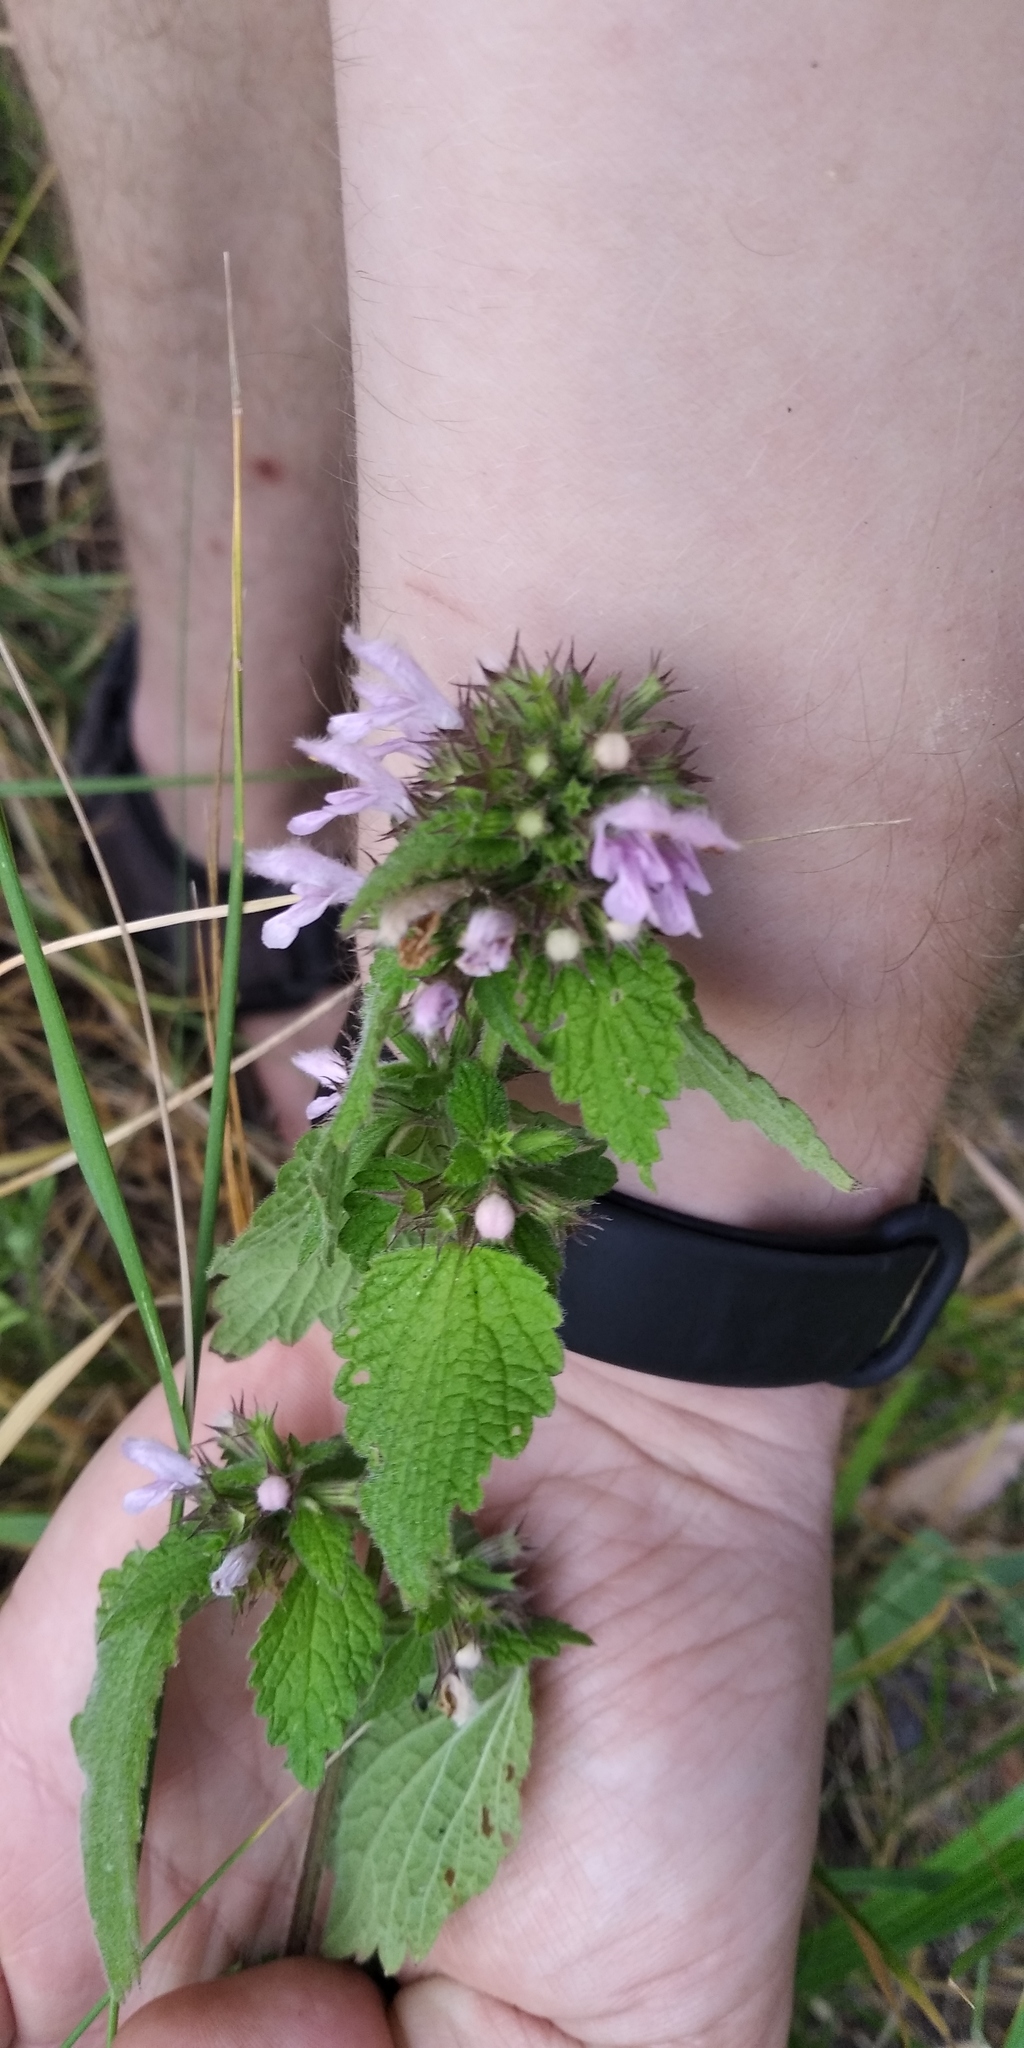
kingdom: Plantae
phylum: Tracheophyta
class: Magnoliopsida
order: Lamiales
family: Lamiaceae
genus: Ballota
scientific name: Ballota nigra
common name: Black horehound
